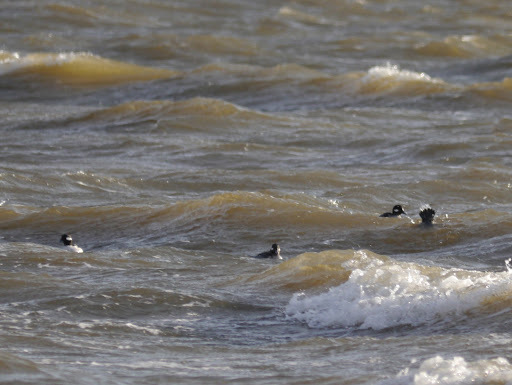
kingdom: Animalia
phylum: Chordata
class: Aves
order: Anseriformes
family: Anatidae
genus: Bucephala
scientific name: Bucephala albeola
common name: Bufflehead
